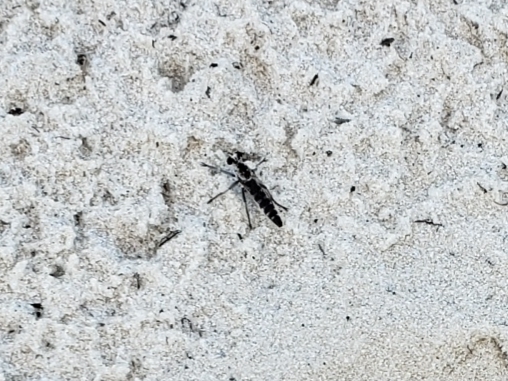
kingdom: Animalia
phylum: Arthropoda
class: Insecta
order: Diptera
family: Asilidae
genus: Stichopogon
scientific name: Stichopogon abdominalis
